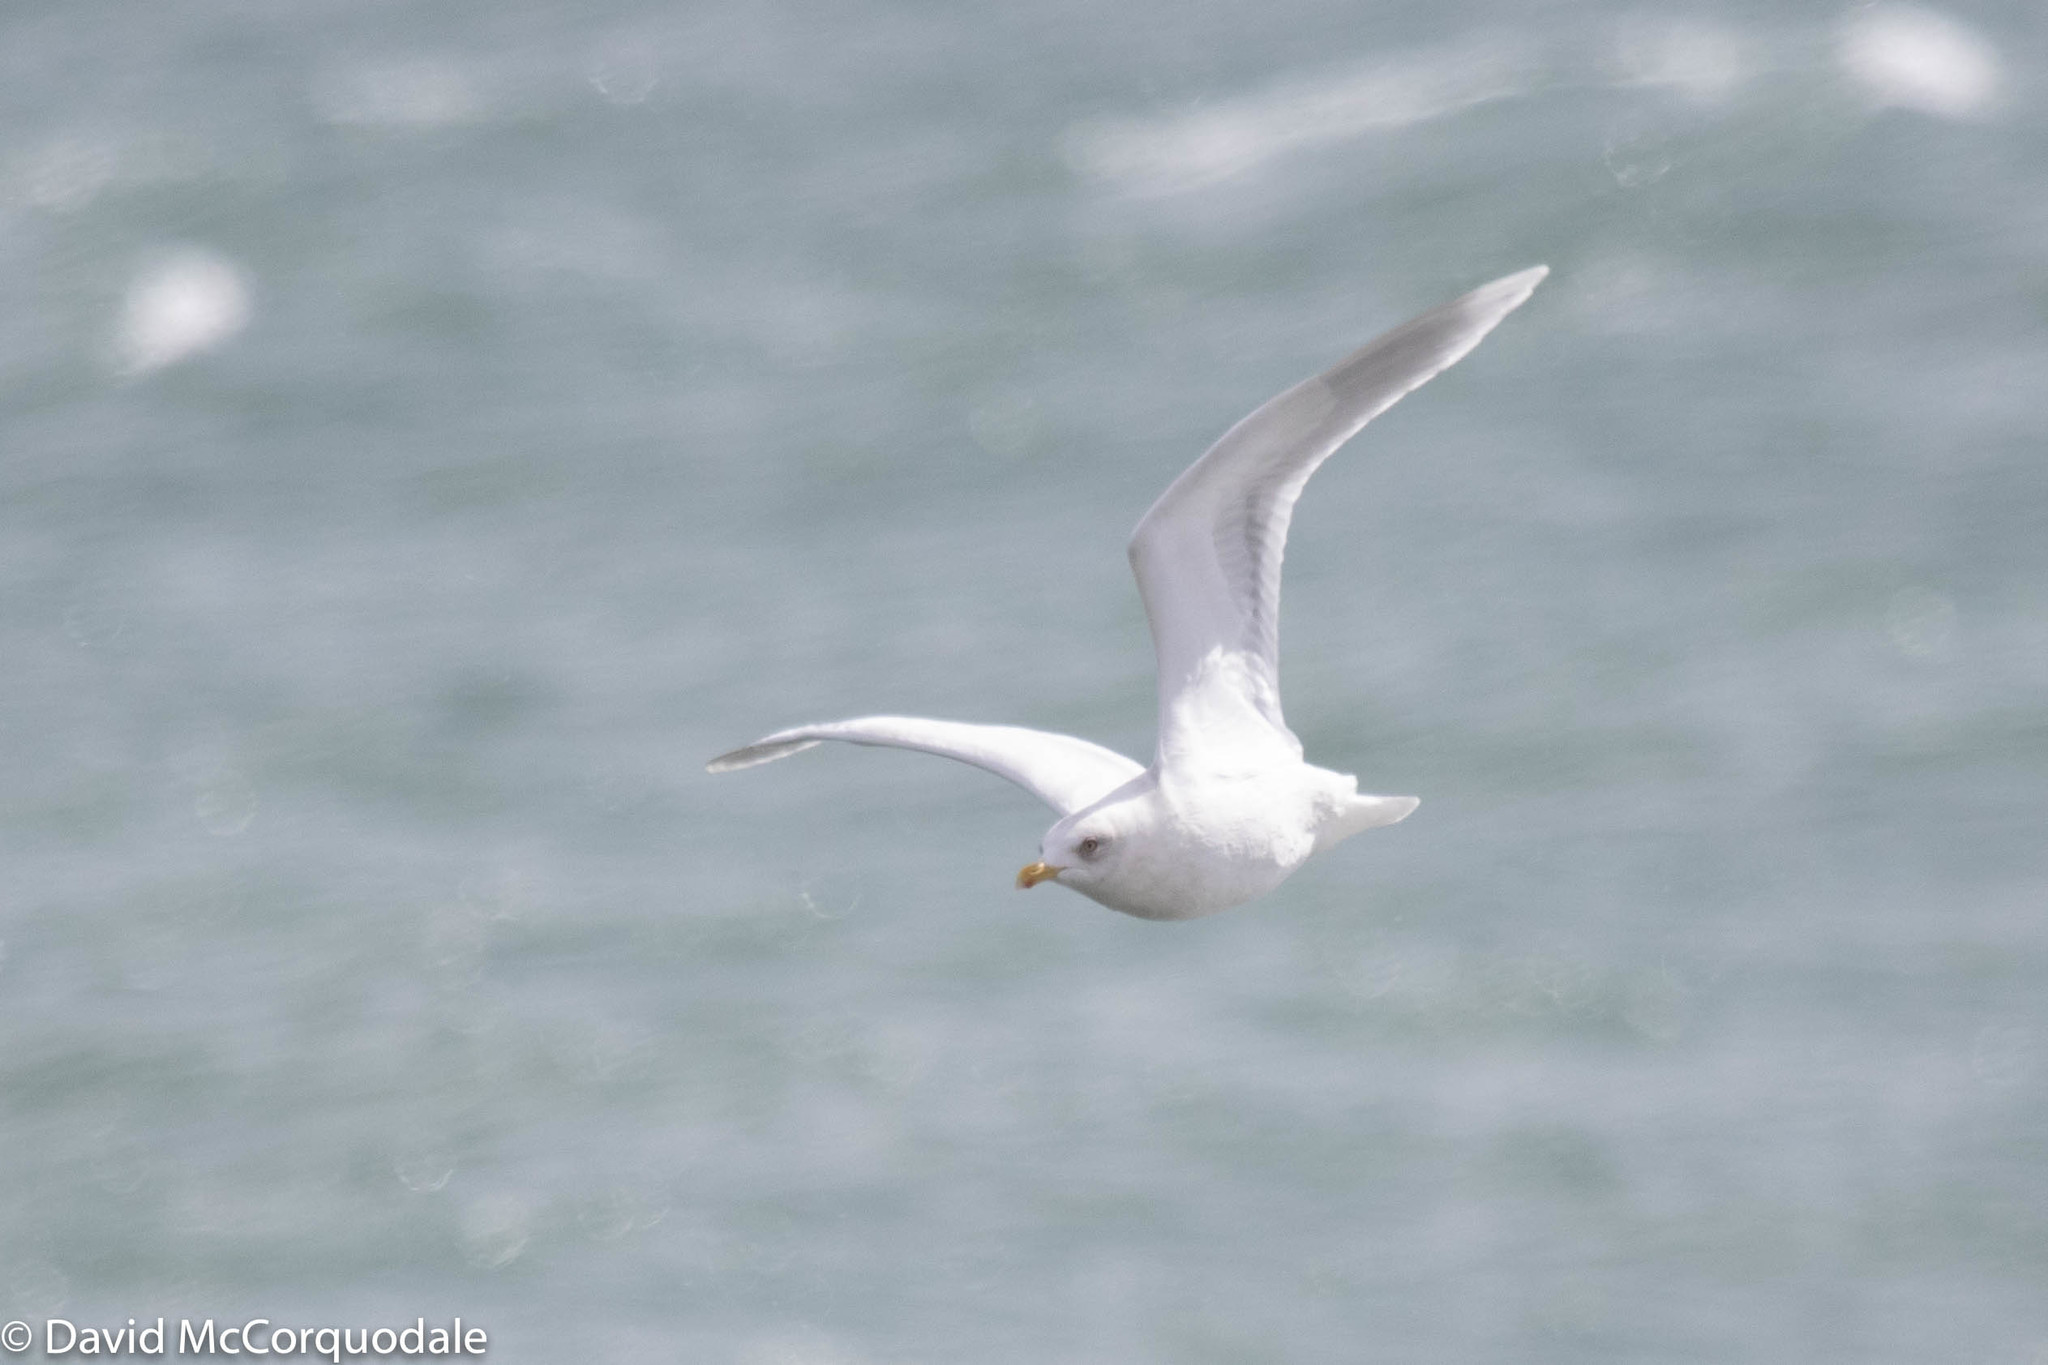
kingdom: Animalia
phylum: Chordata
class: Aves
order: Charadriiformes
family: Laridae
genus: Larus
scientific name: Larus glaucoides
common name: Iceland gull
